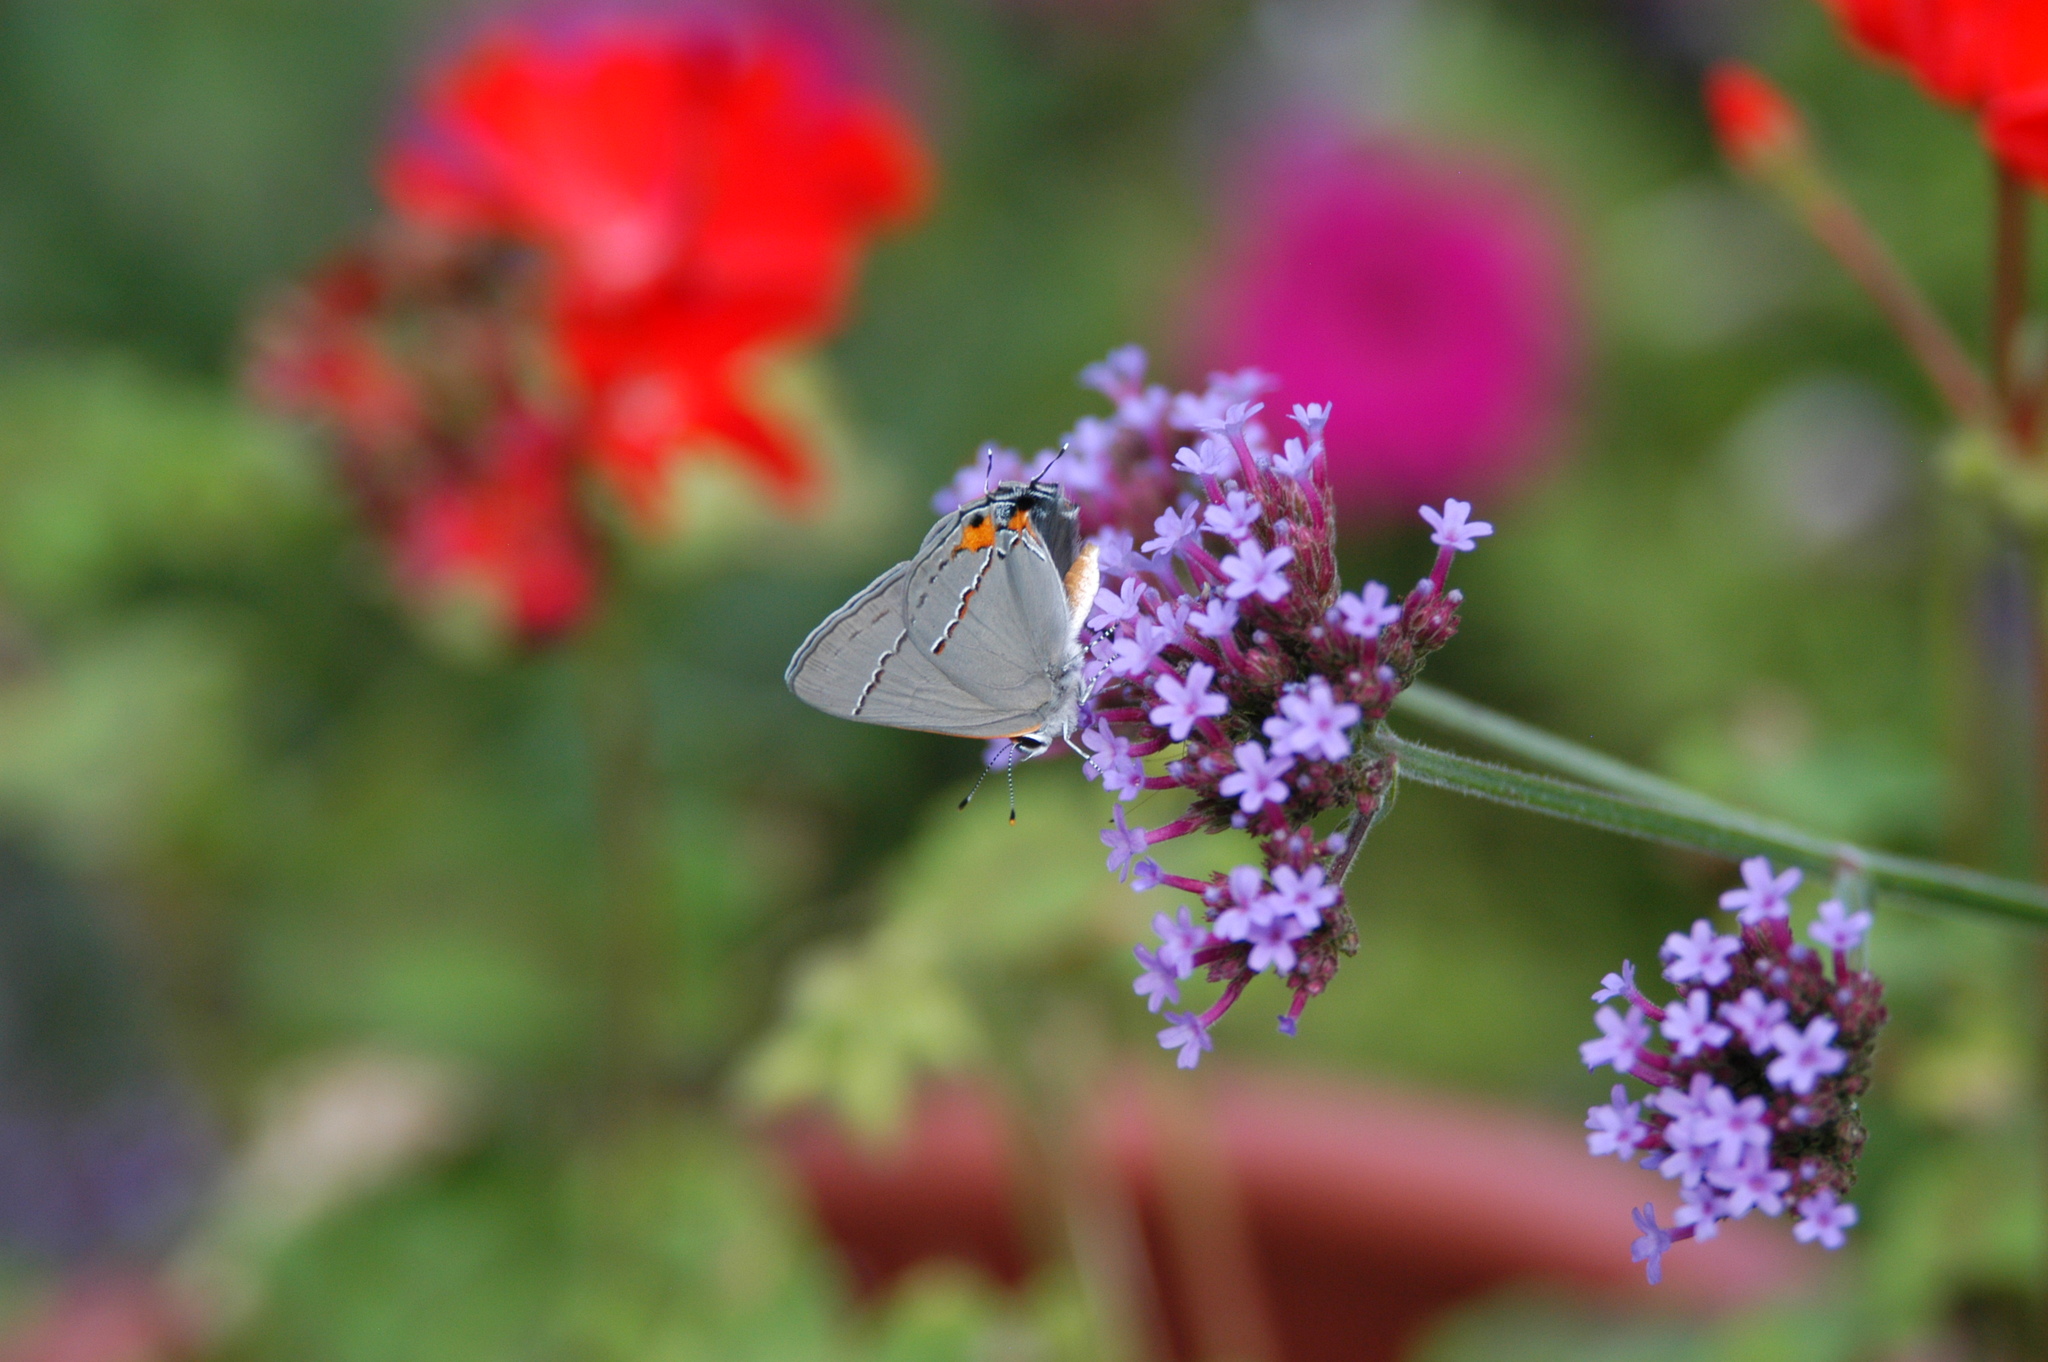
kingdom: Animalia
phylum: Arthropoda
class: Insecta
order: Lepidoptera
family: Lycaenidae
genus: Strymon
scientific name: Strymon melinus
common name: Gray hairstreak
